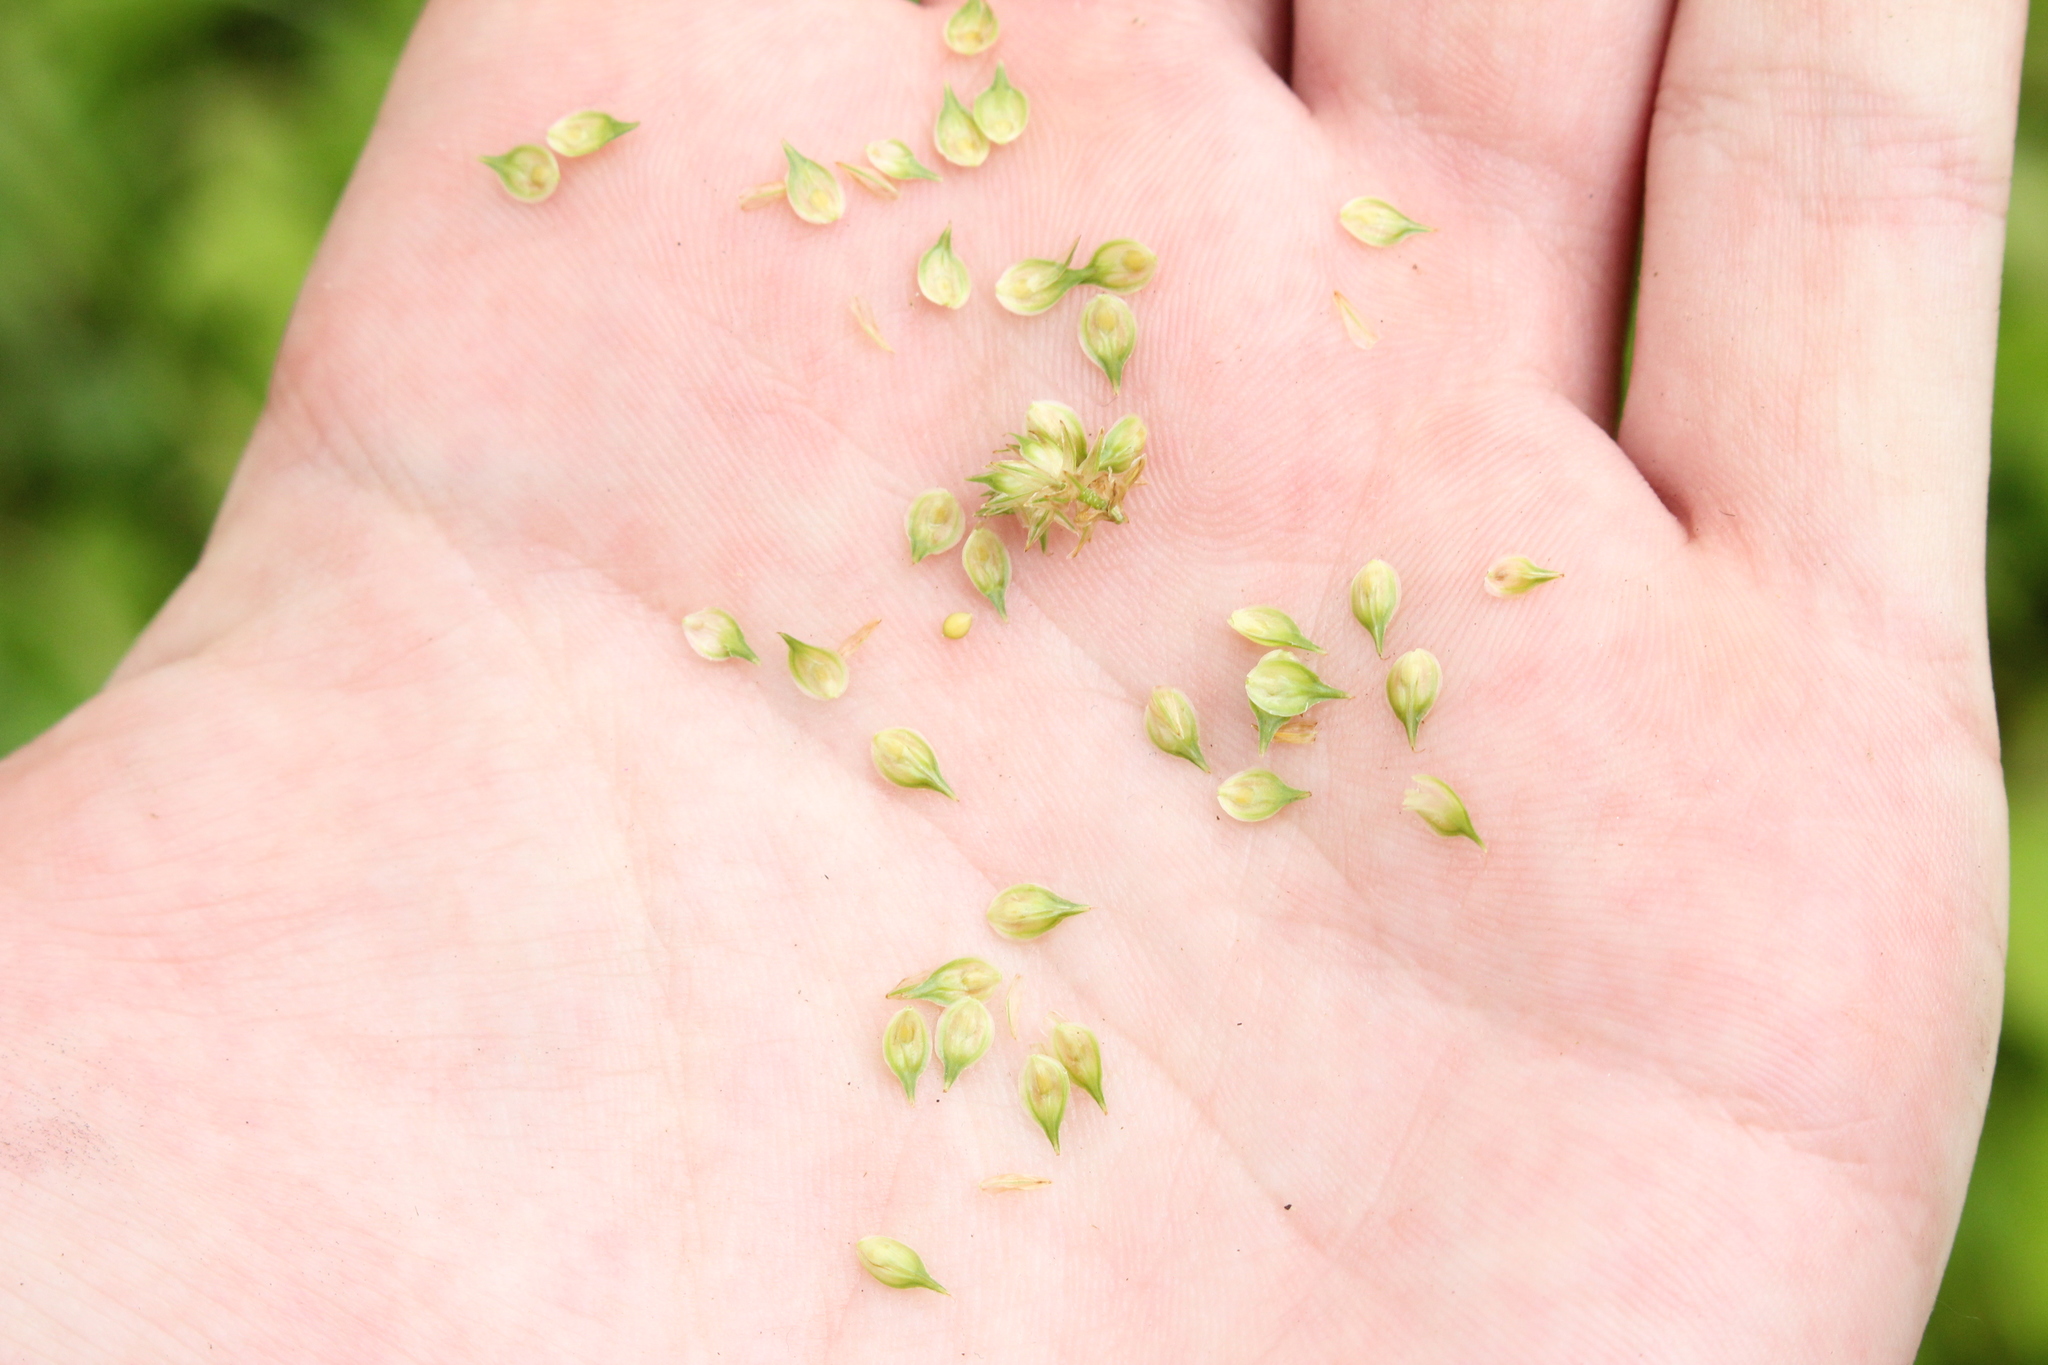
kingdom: Plantae
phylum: Tracheophyta
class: Liliopsida
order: Poales
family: Cyperaceae
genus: Carex
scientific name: Carex molesta
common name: Troublesome sedge
